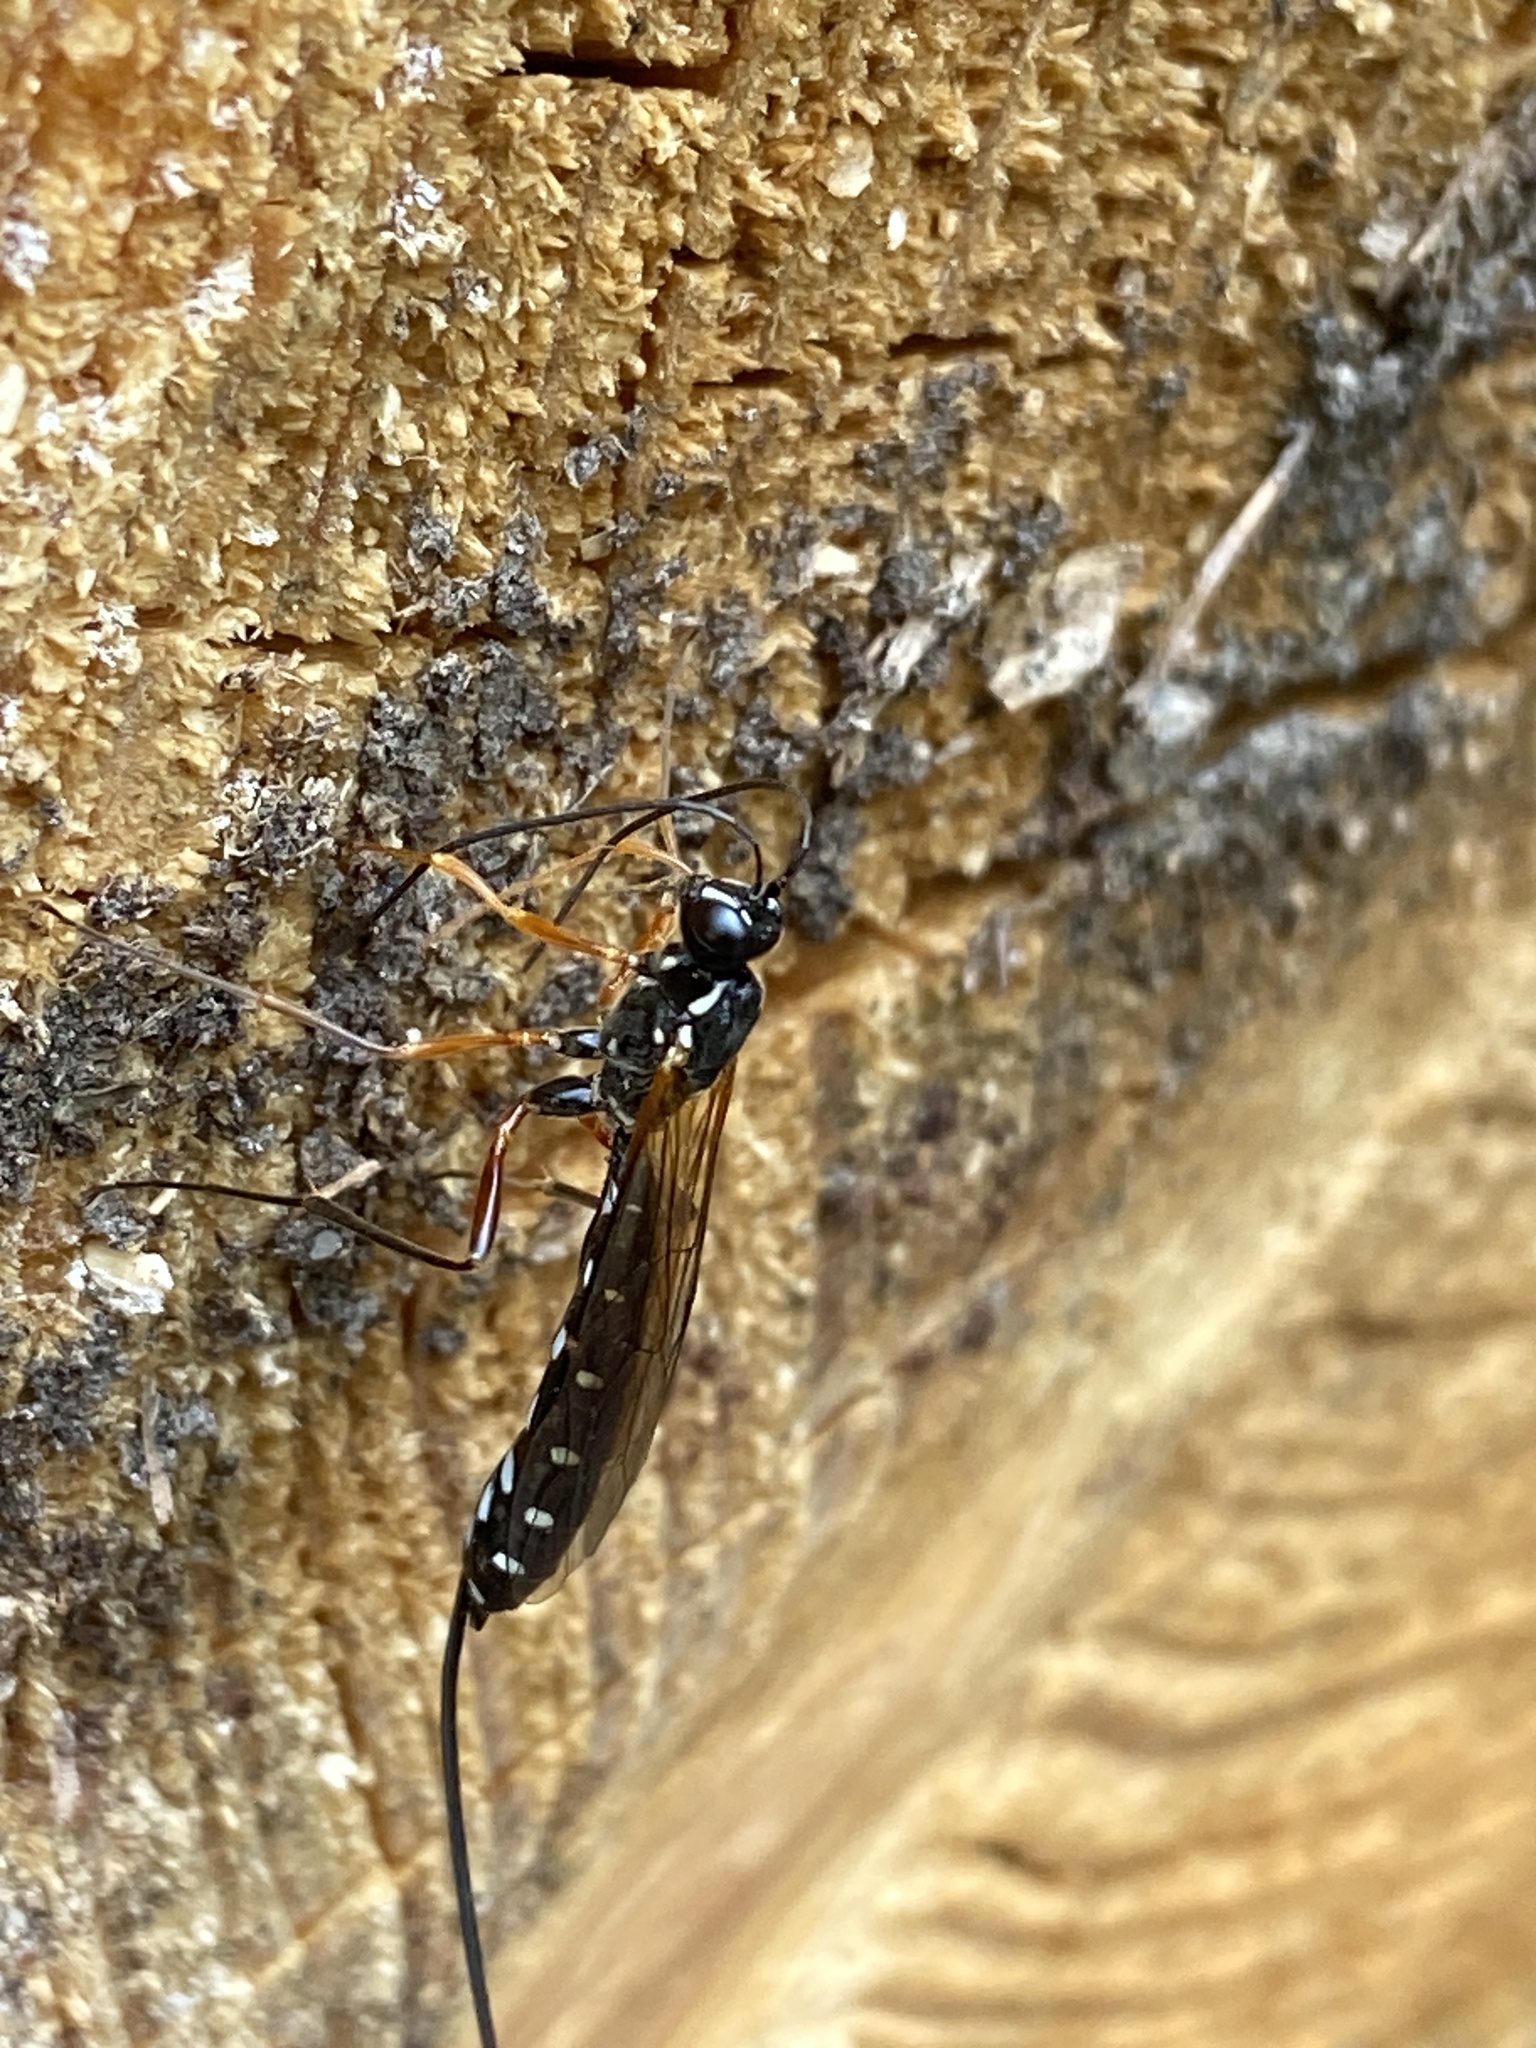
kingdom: Animalia
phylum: Arthropoda
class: Insecta
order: Hymenoptera
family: Ichneumonidae
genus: Rhyssa
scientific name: Rhyssa persuasoria
